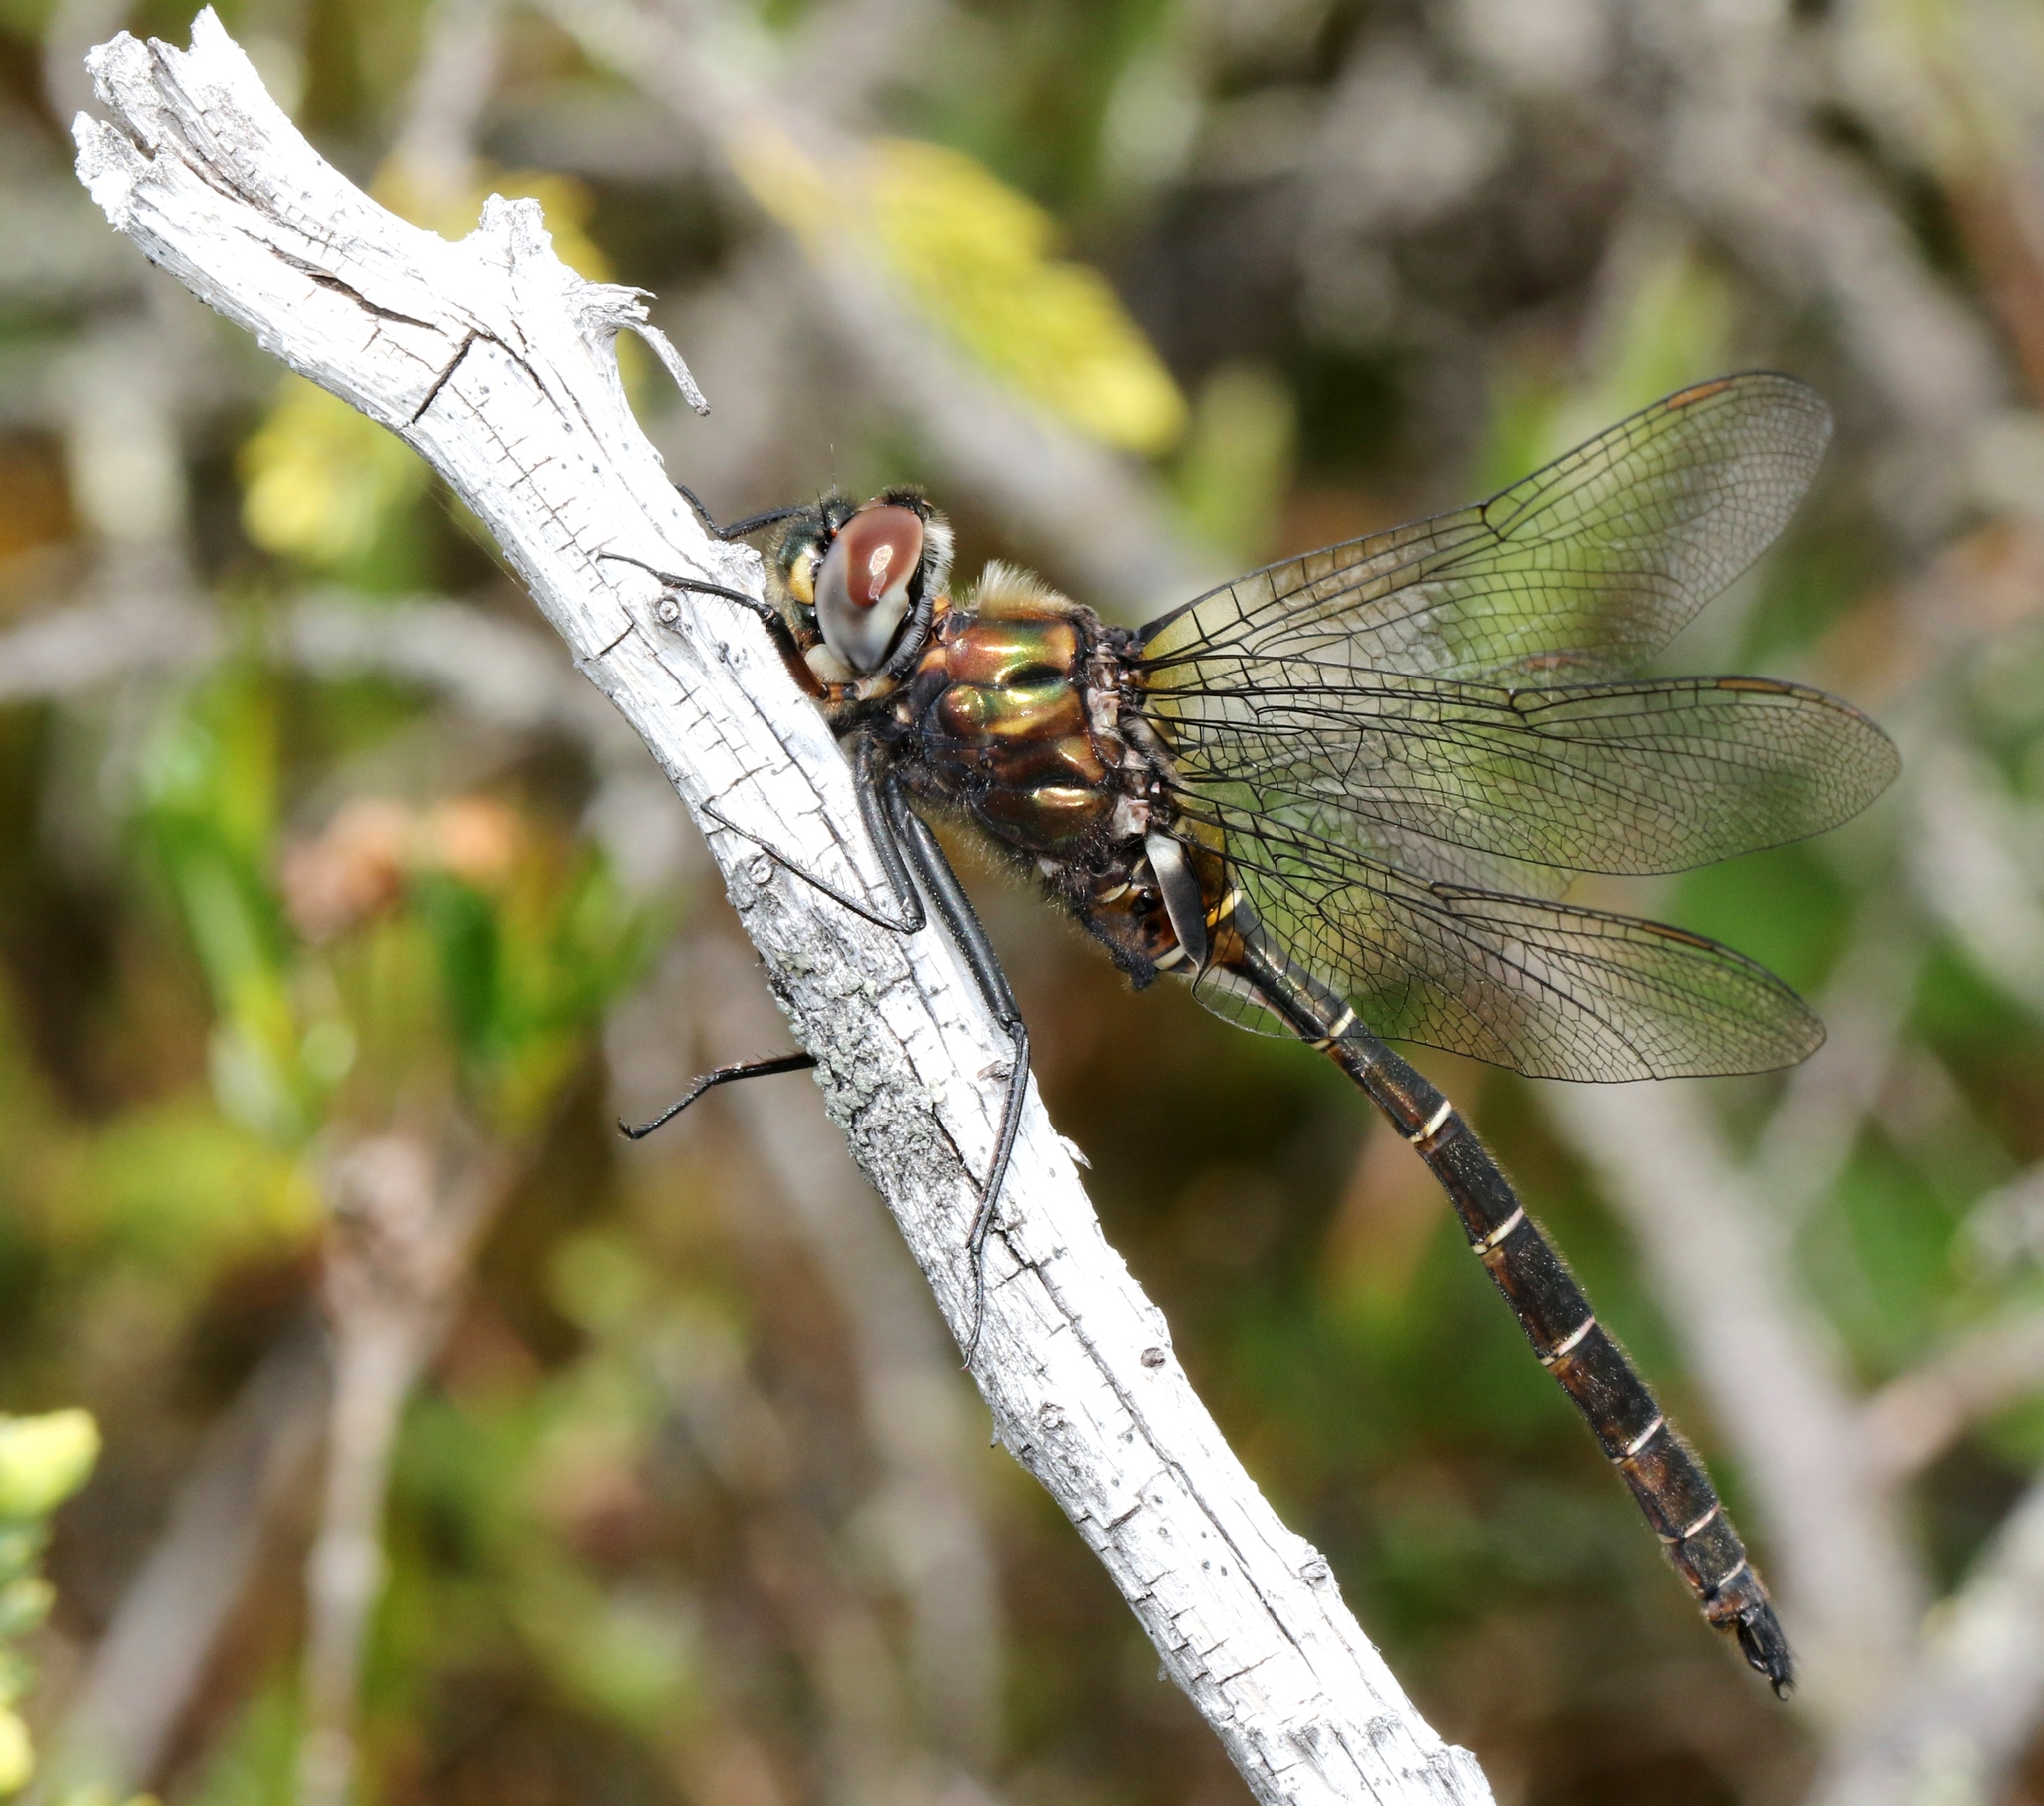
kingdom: Animalia
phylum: Arthropoda
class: Insecta
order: Odonata
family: Corduliidae
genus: Somatochlora
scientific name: Somatochlora cingulata
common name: Lake emerald
